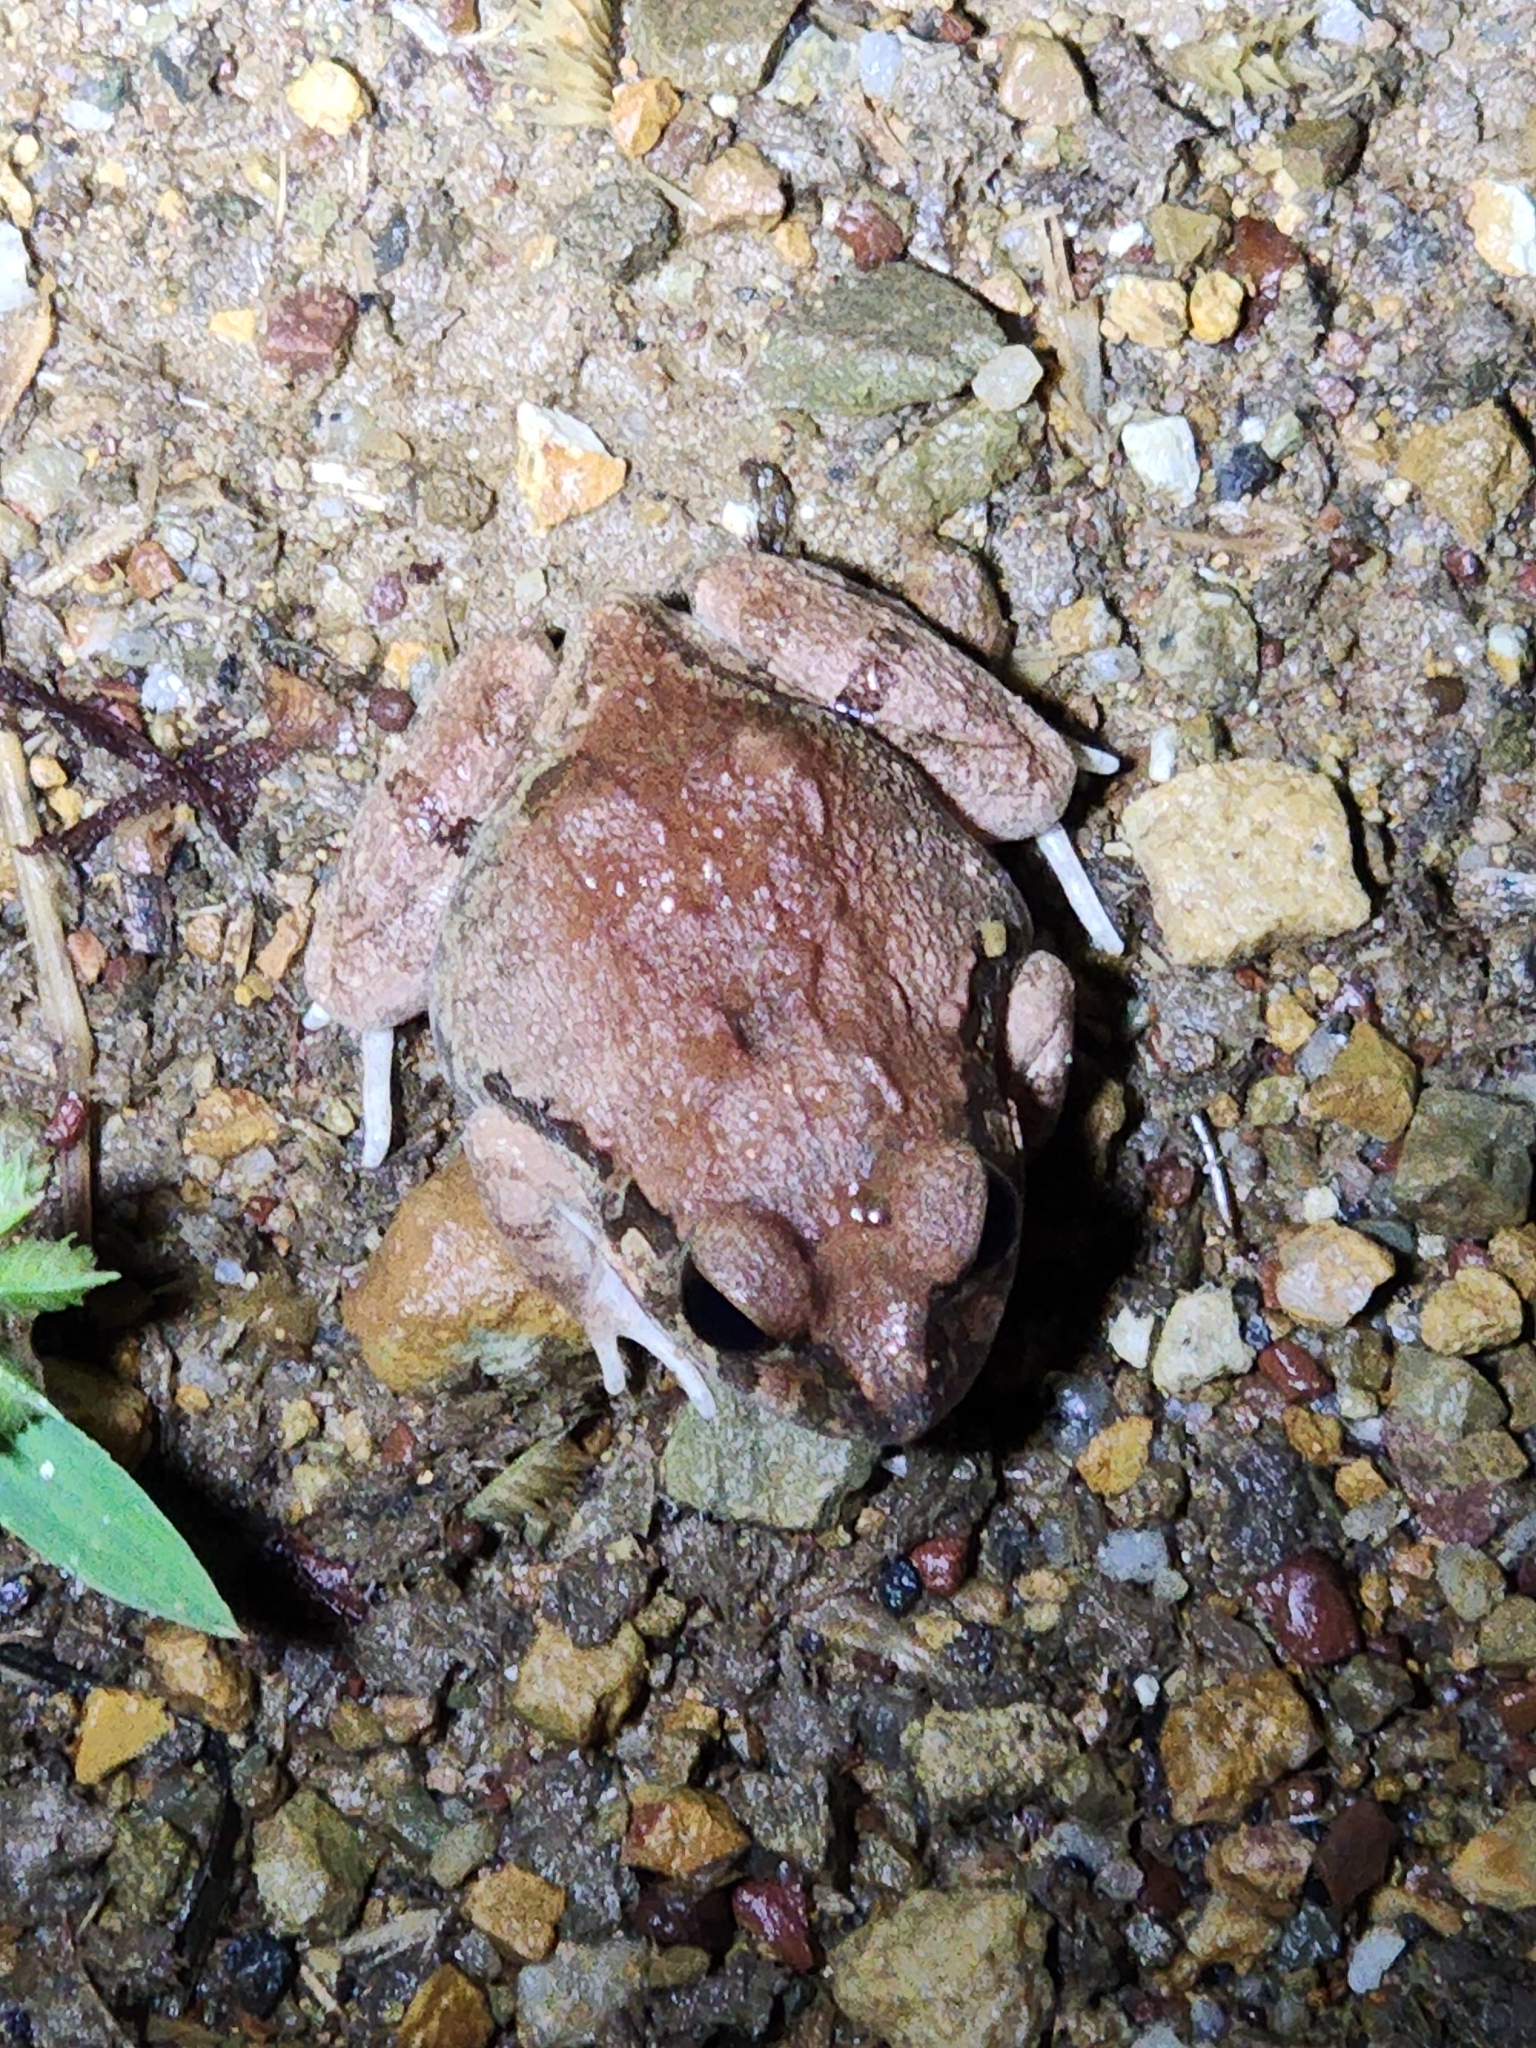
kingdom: Animalia
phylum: Chordata
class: Amphibia
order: Anura
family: Limnodynastidae
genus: Platyplectrum
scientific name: Platyplectrum ornatum
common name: Ornate burrowing frog
